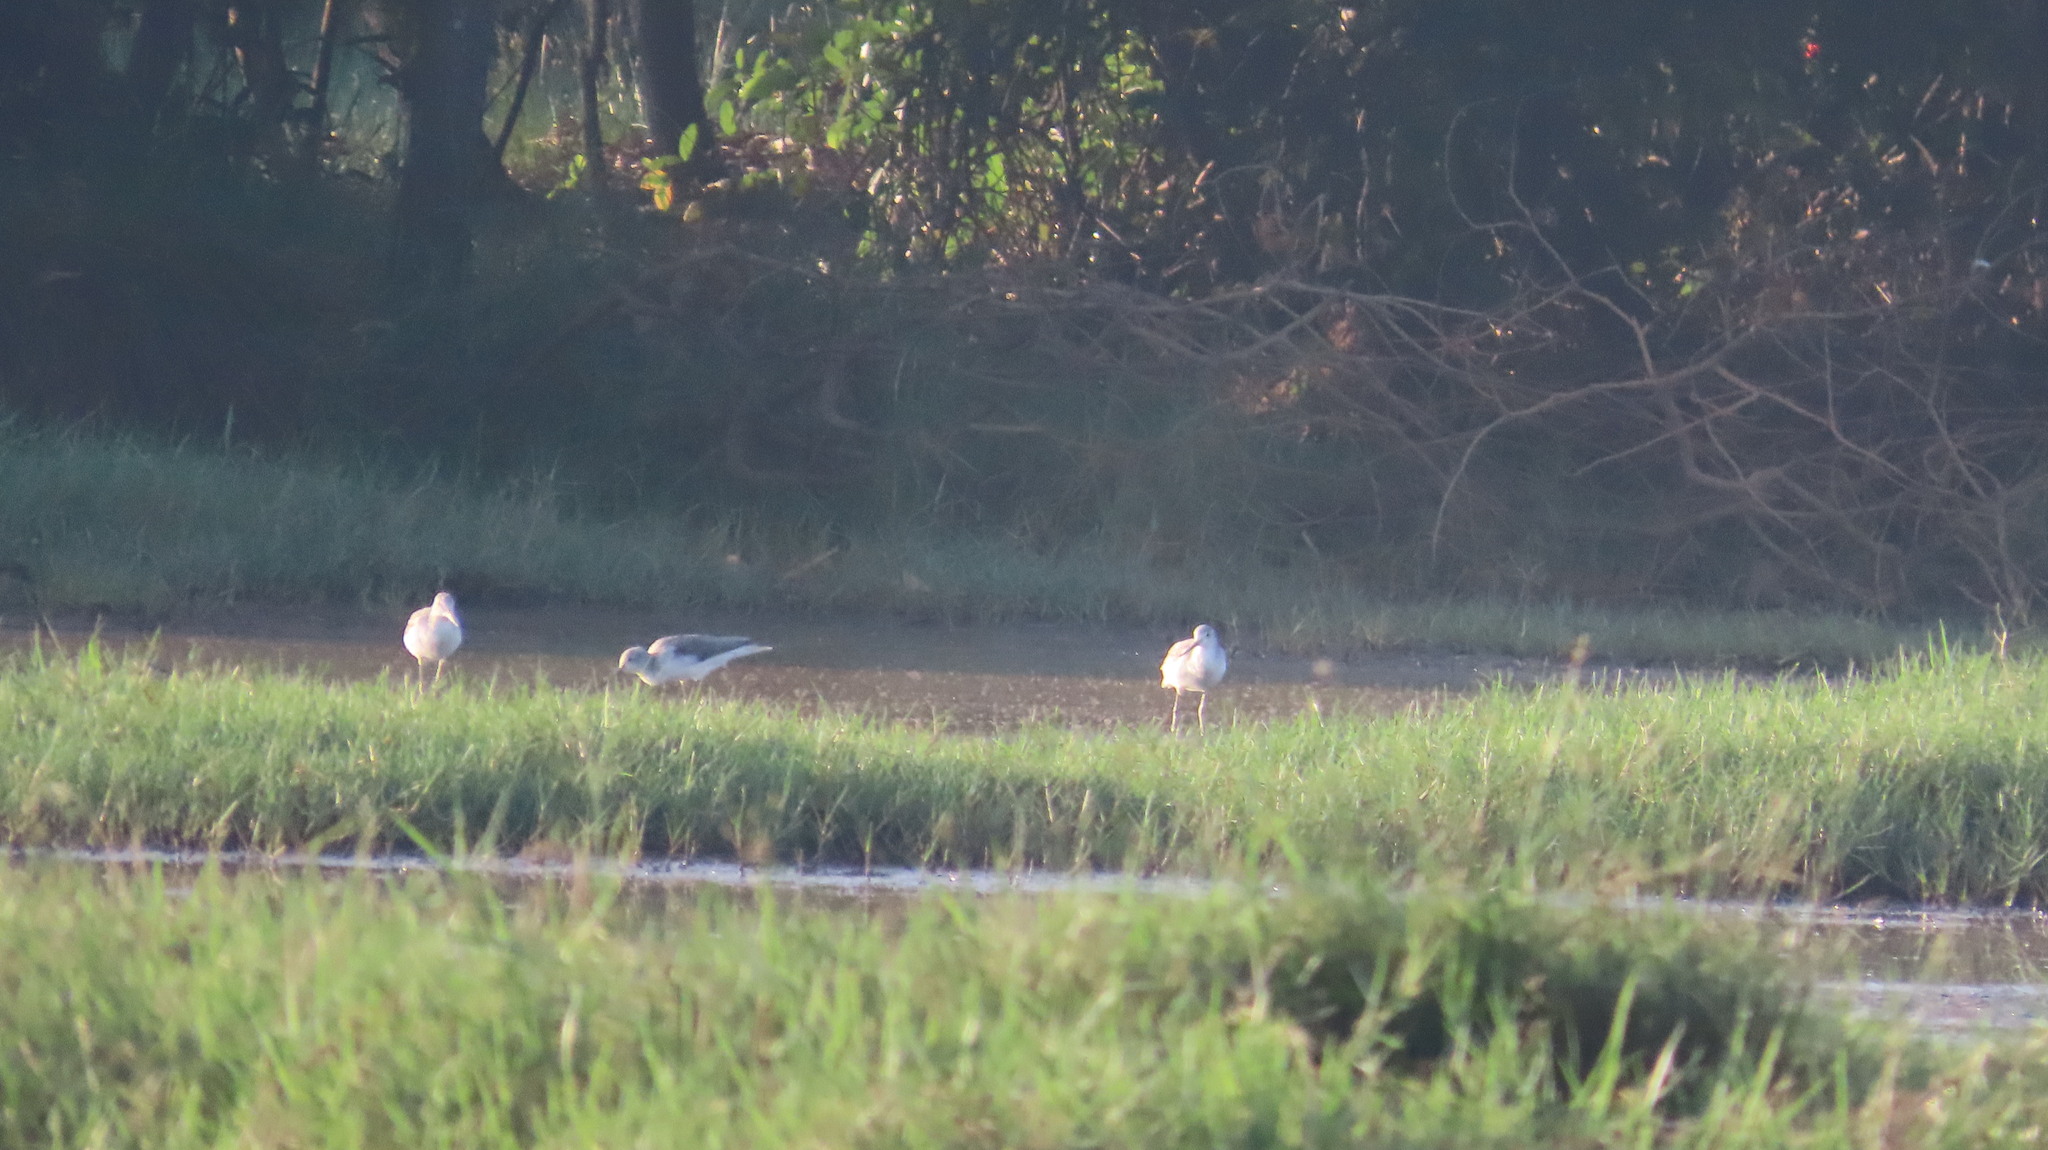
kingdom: Animalia
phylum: Chordata
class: Aves
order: Charadriiformes
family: Scolopacidae
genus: Tringa
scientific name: Tringa glareola
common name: Wood sandpiper
